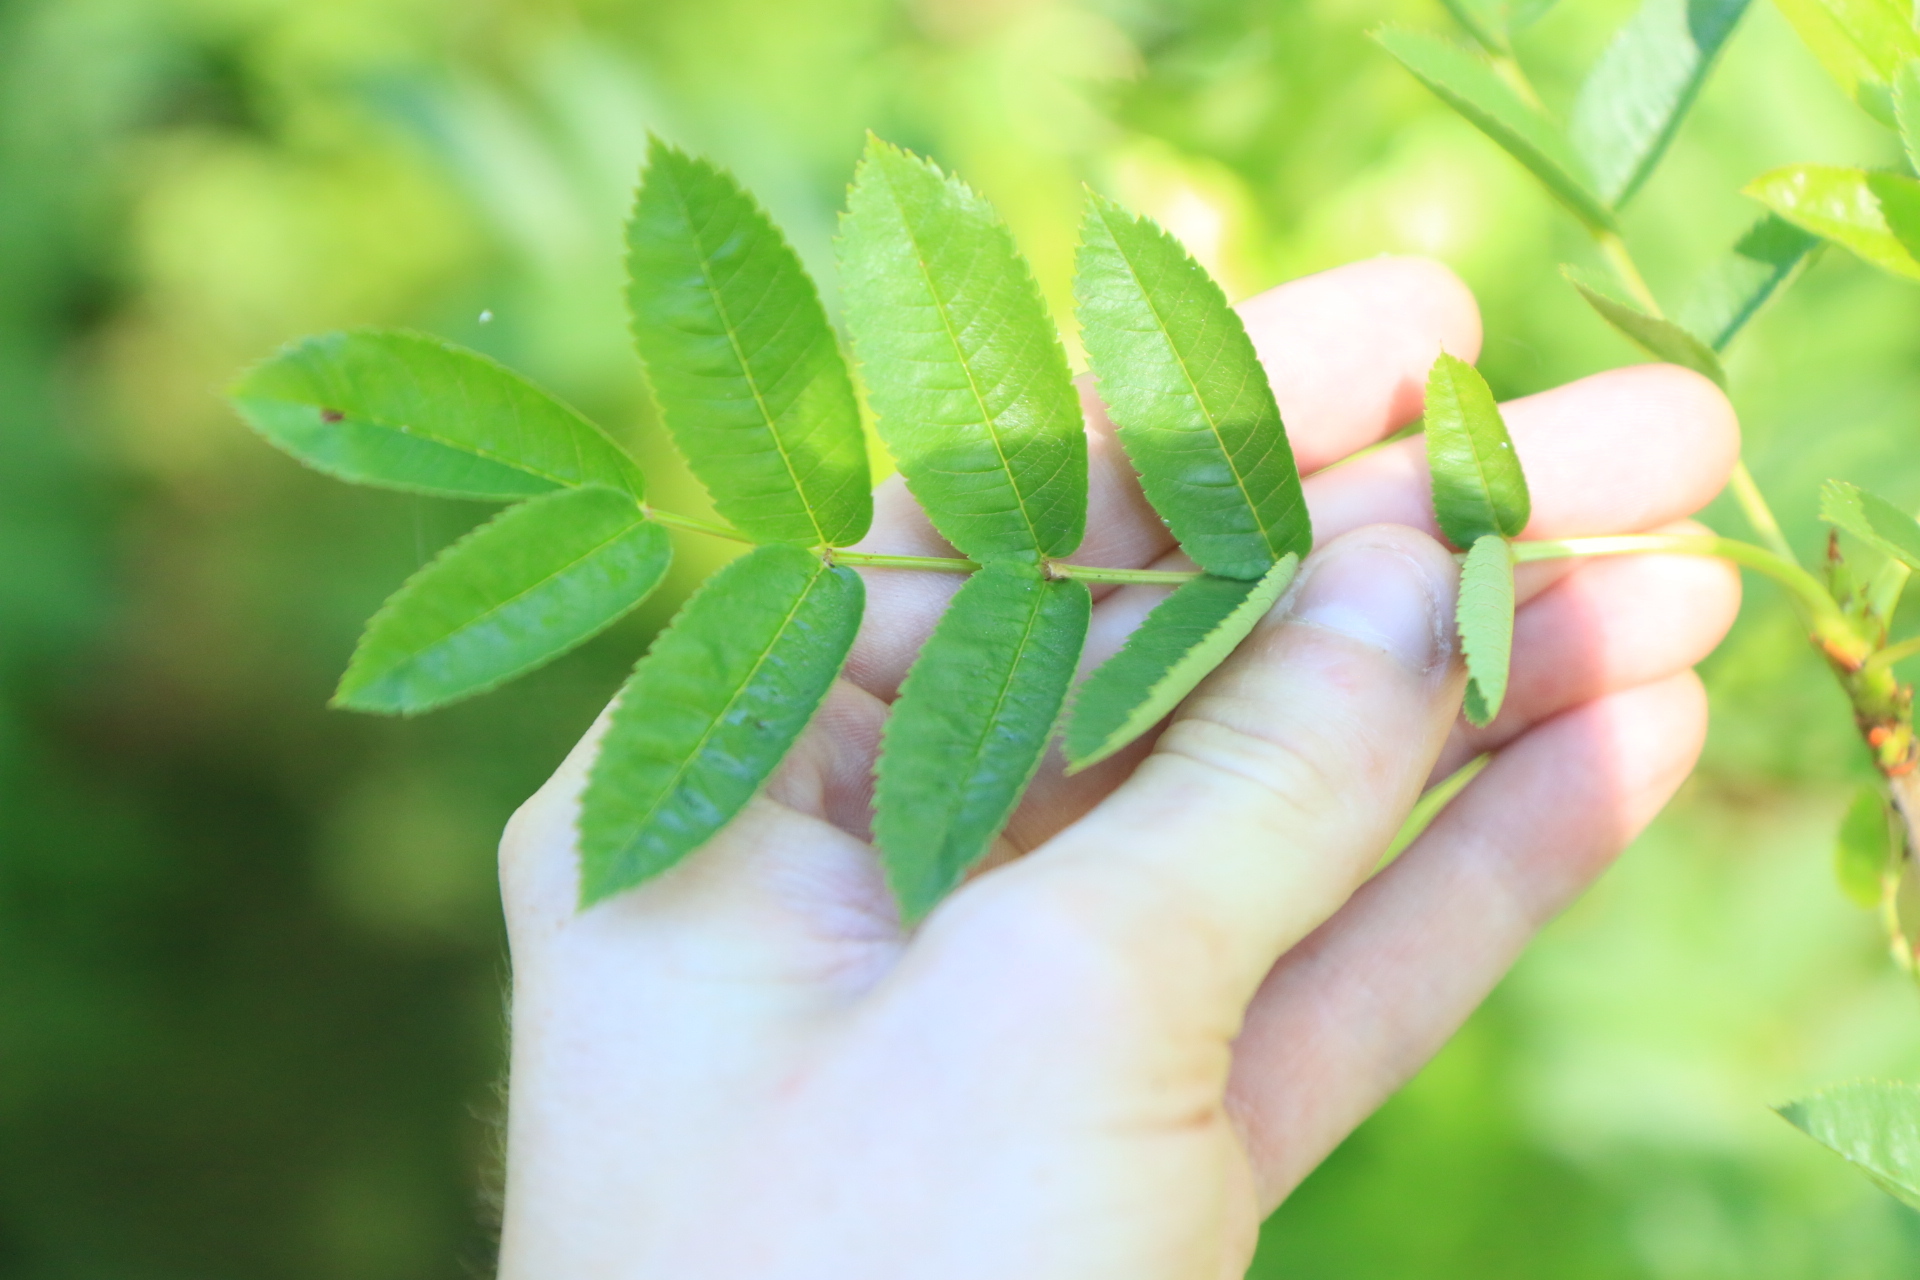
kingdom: Plantae
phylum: Tracheophyta
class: Magnoliopsida
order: Rosales
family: Rosaceae
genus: Sorbus
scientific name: Sorbus scopulina
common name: Greene's mountain-ash
